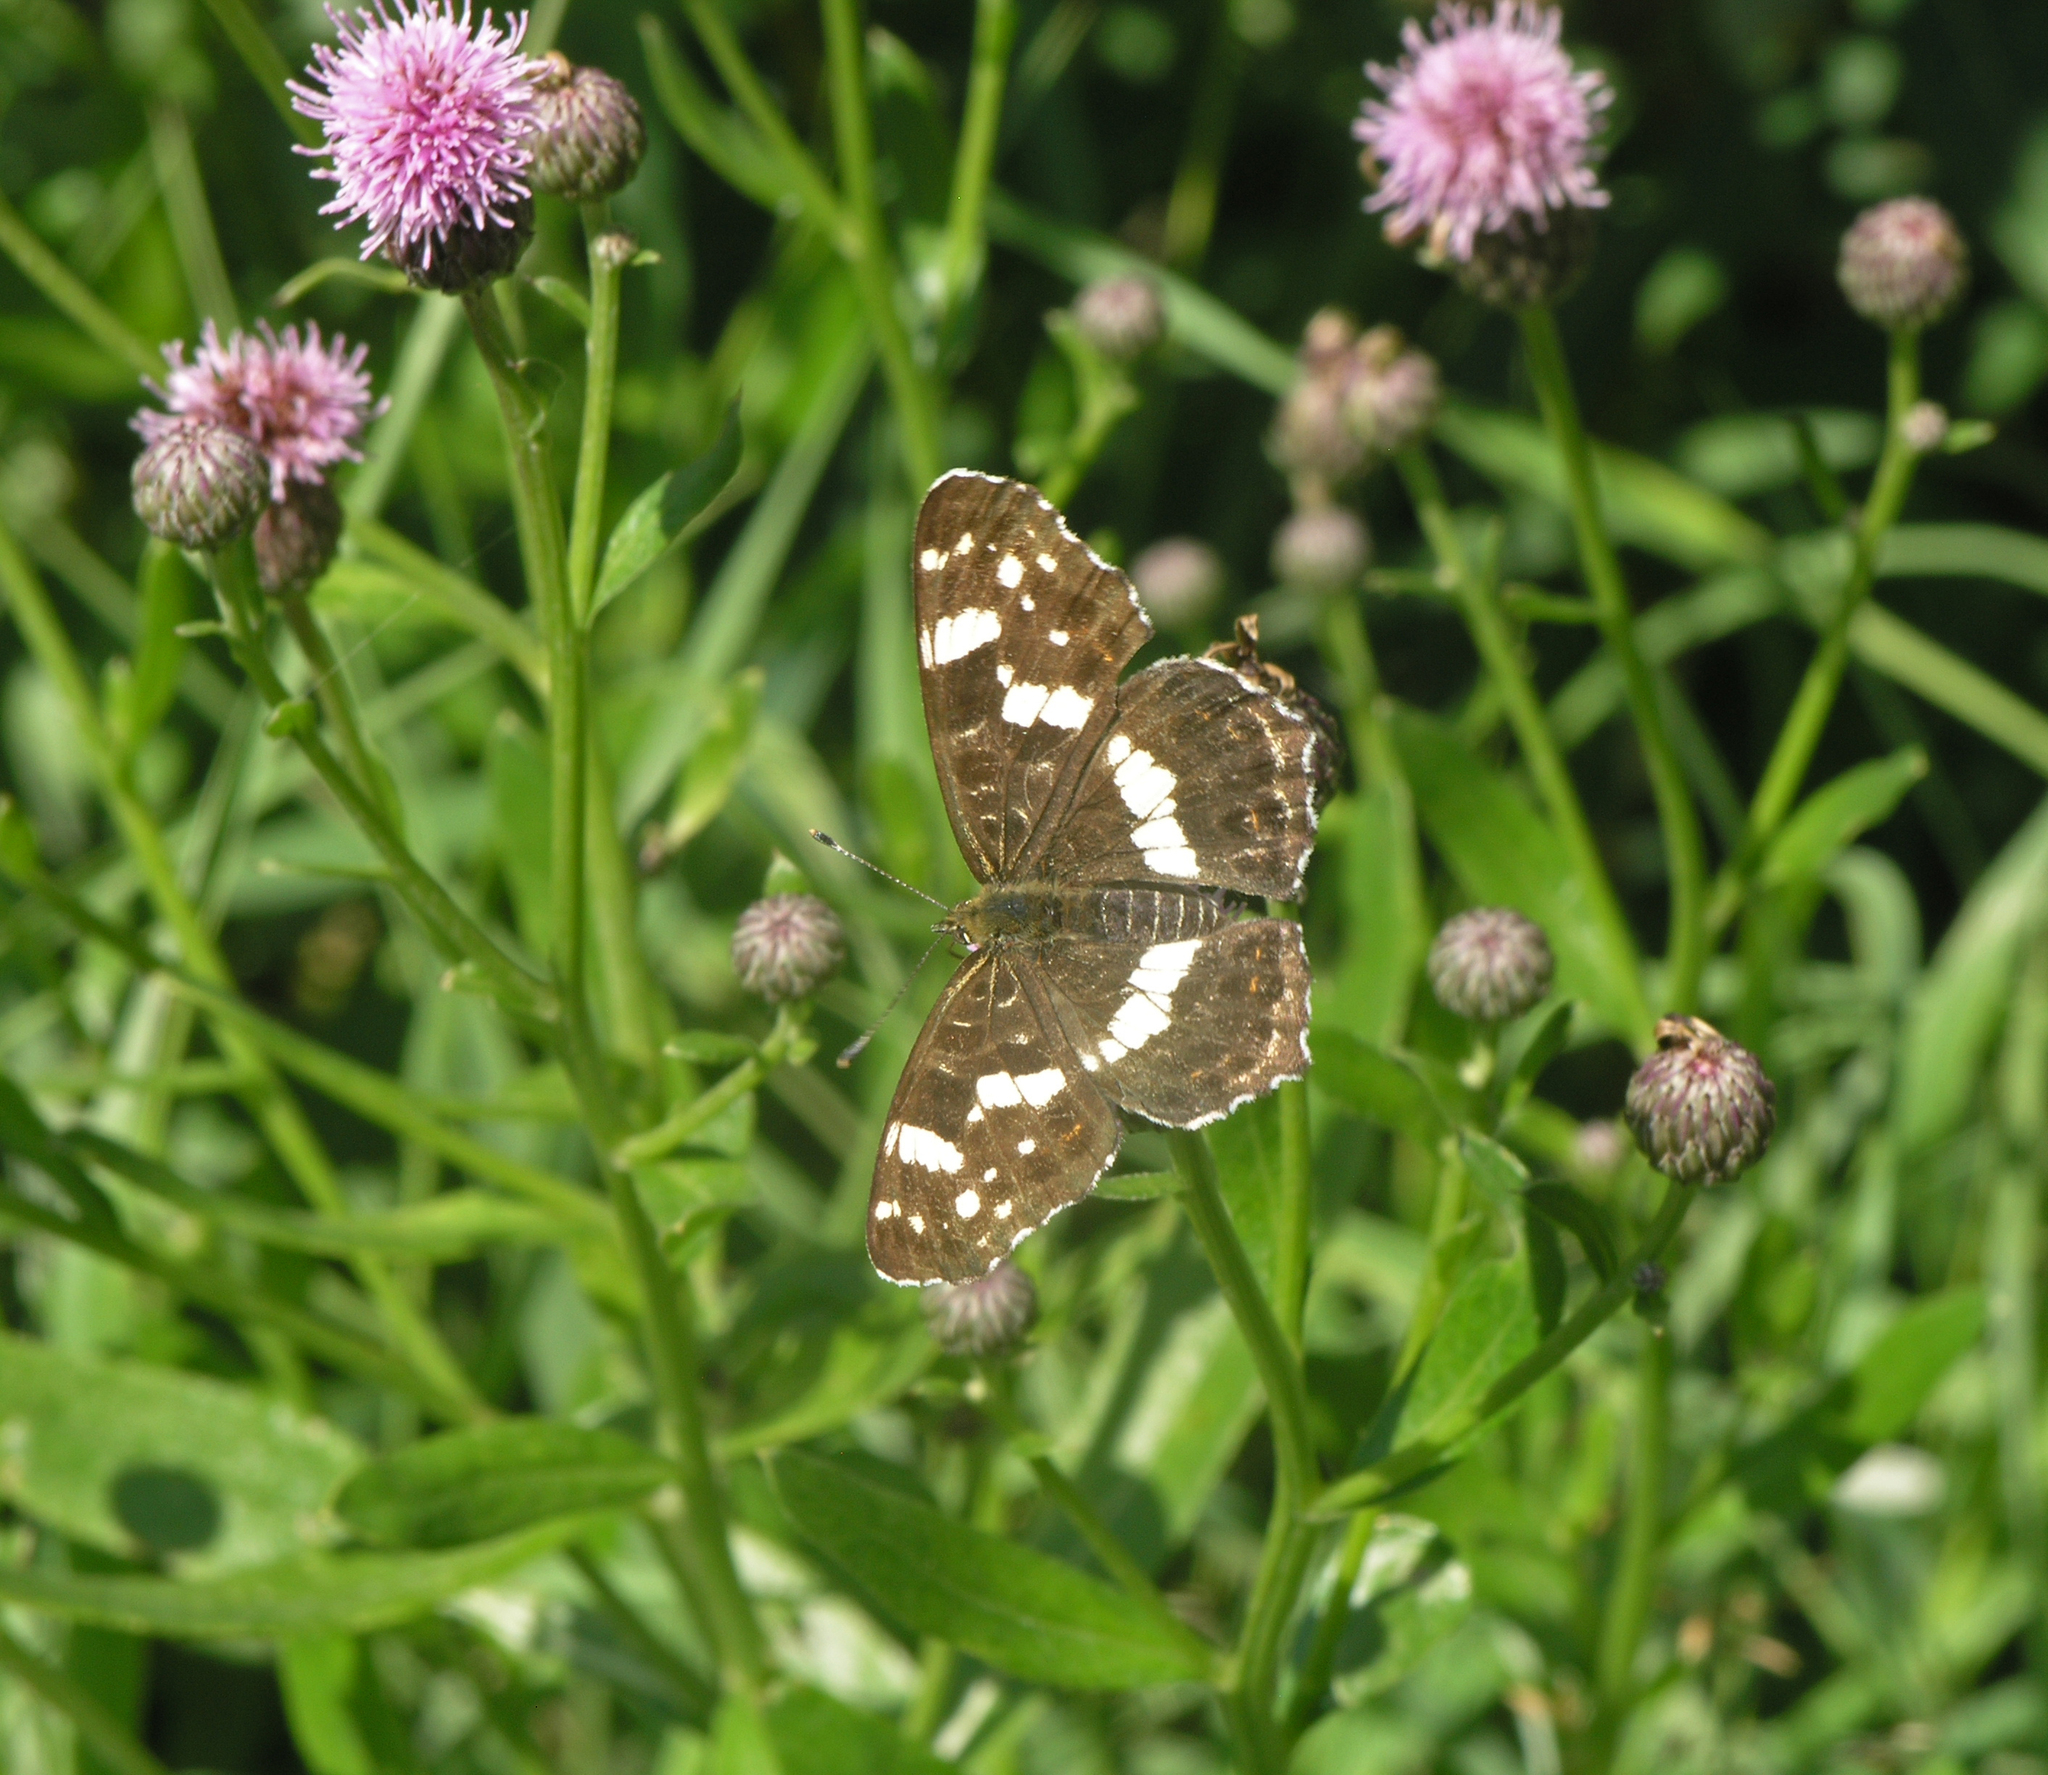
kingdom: Plantae
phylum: Tracheophyta
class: Magnoliopsida
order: Asterales
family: Asteraceae
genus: Cirsium
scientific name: Cirsium arvense
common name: Creeping thistle
